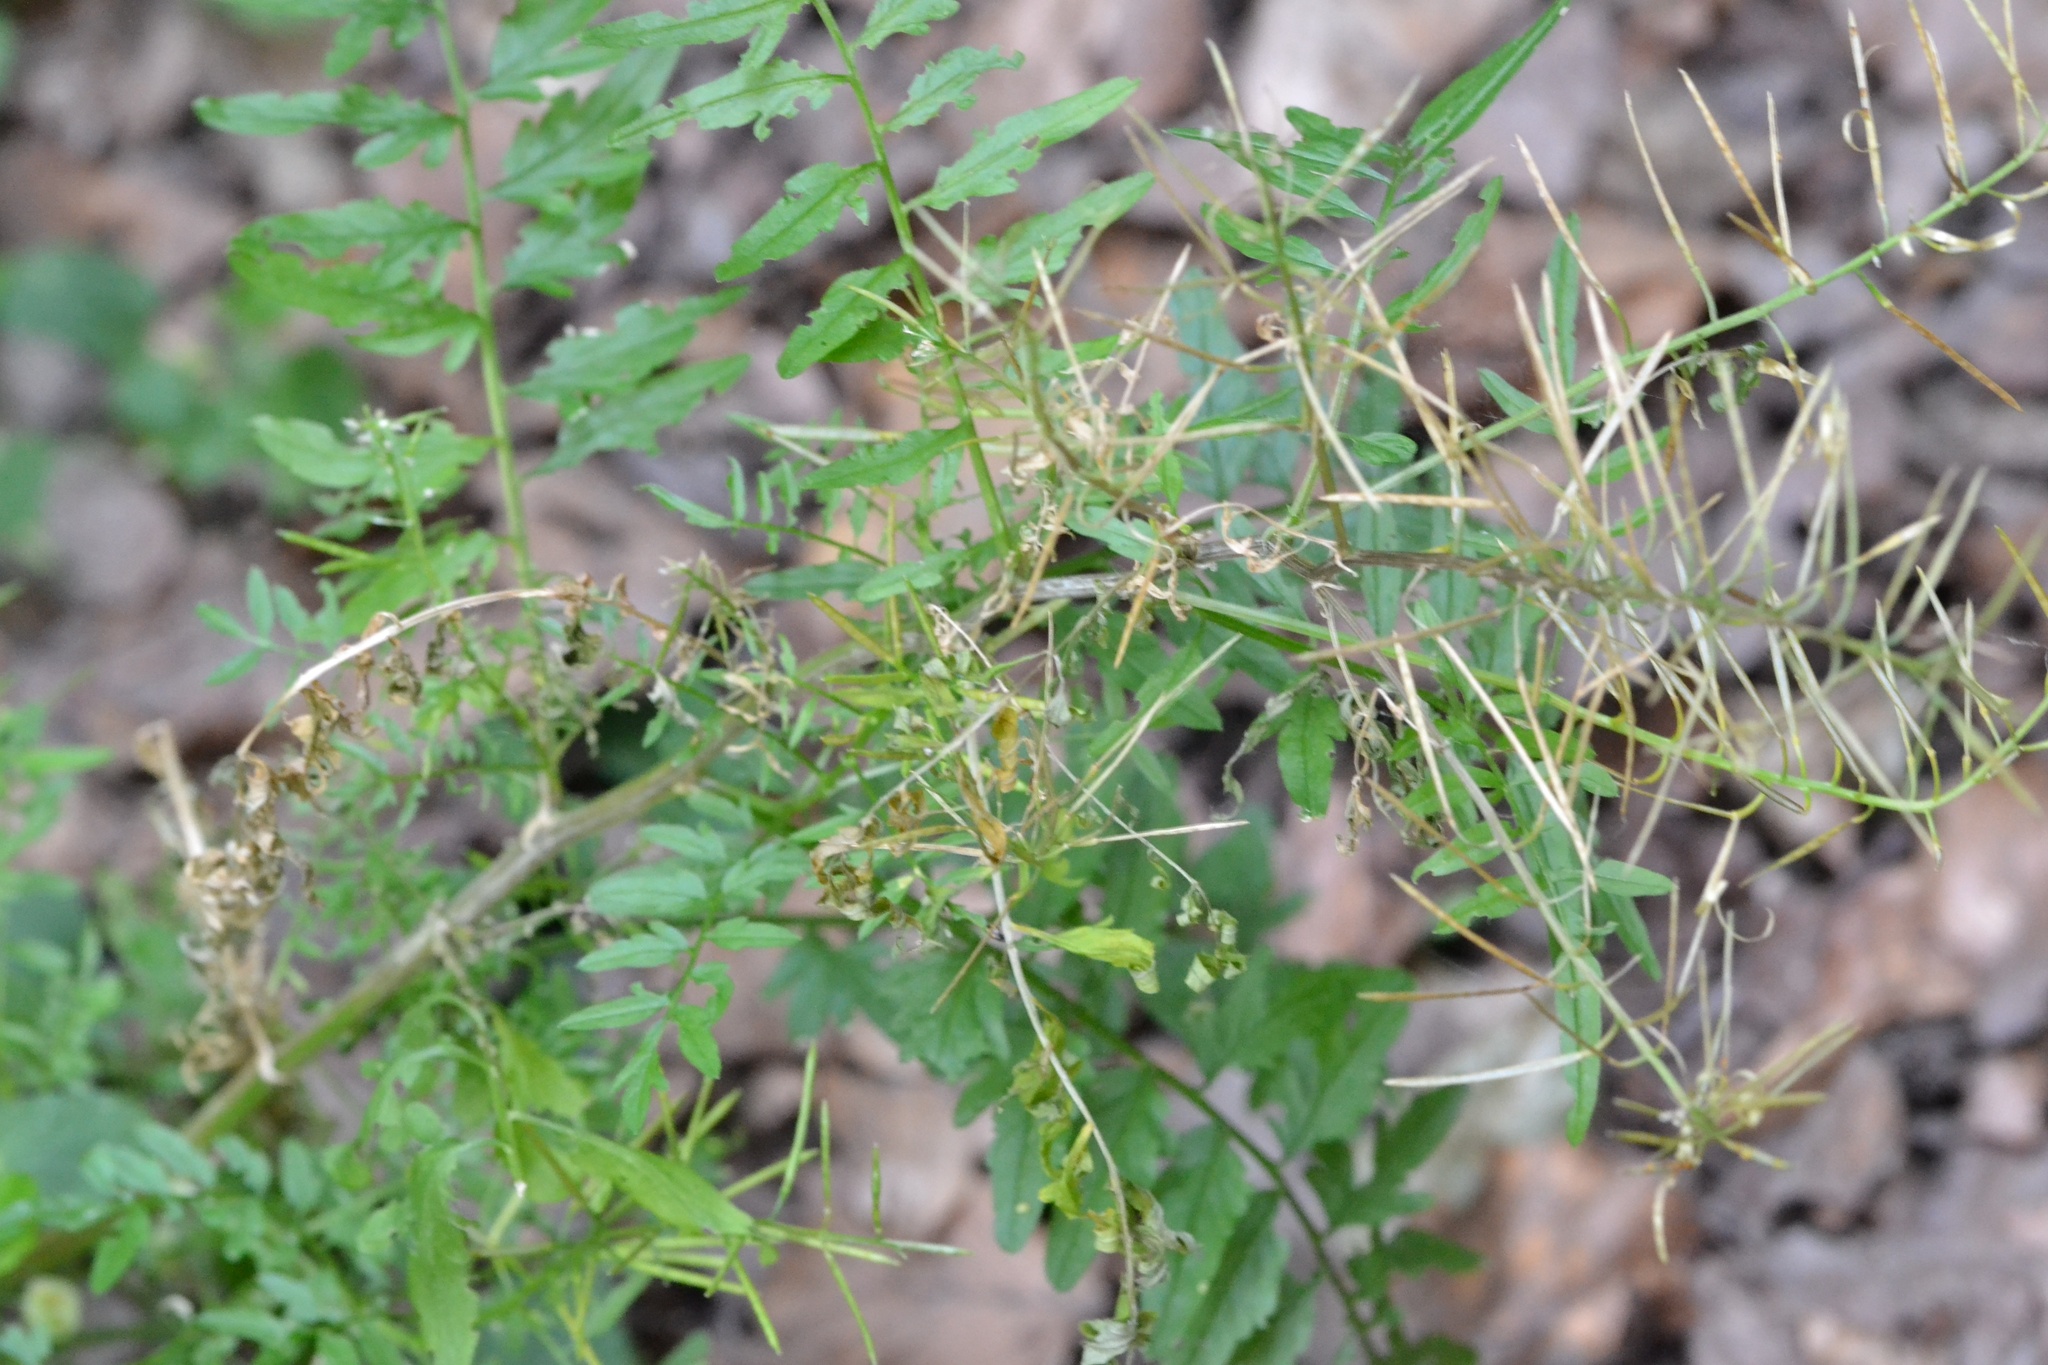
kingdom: Plantae
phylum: Tracheophyta
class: Magnoliopsida
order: Brassicales
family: Brassicaceae
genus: Cardamine
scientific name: Cardamine impatiens
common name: Narrow-leaved bitter-cress
